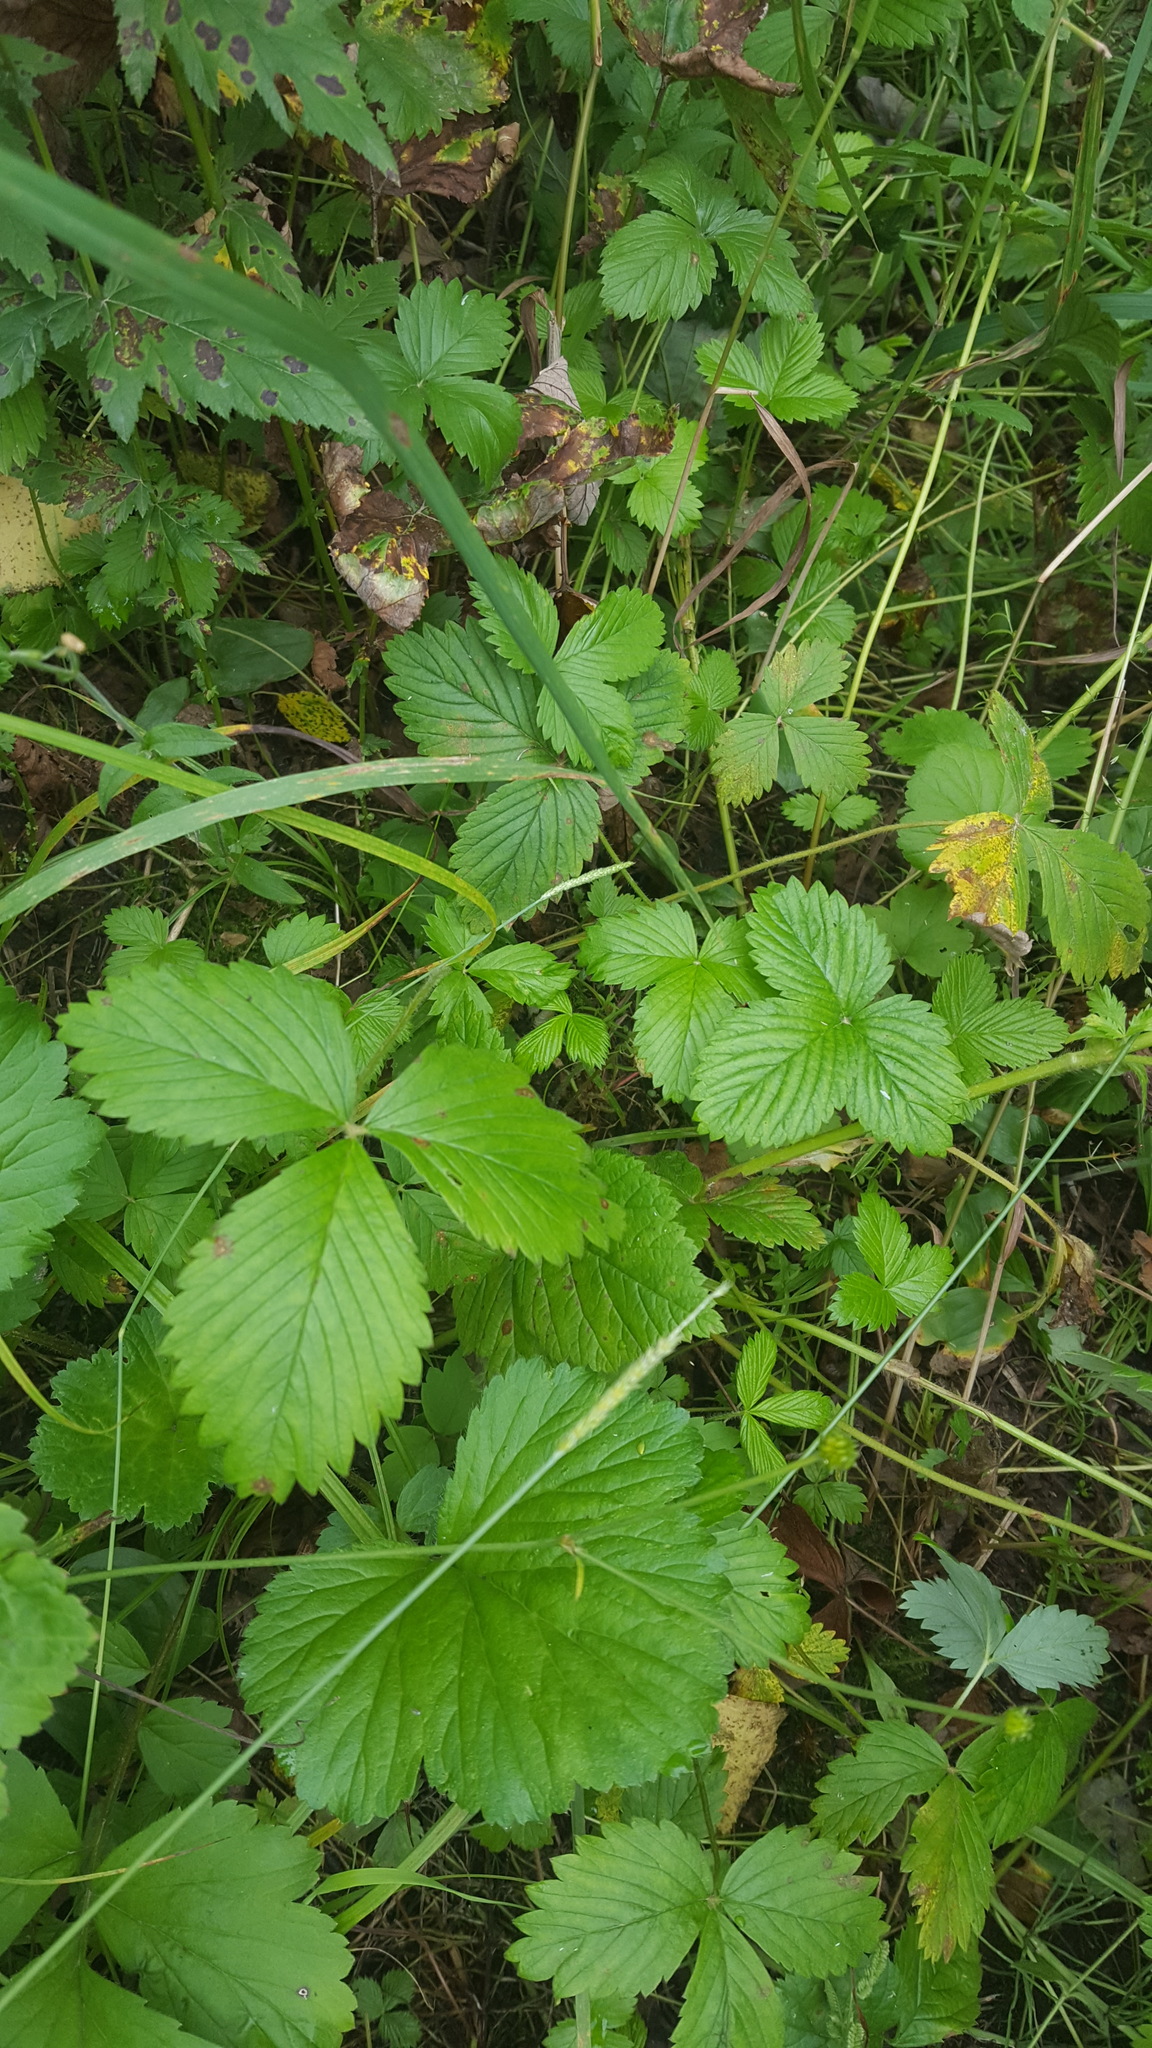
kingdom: Plantae
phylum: Tracheophyta
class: Magnoliopsida
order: Rosales
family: Rosaceae
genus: Fragaria
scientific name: Fragaria orientalis
